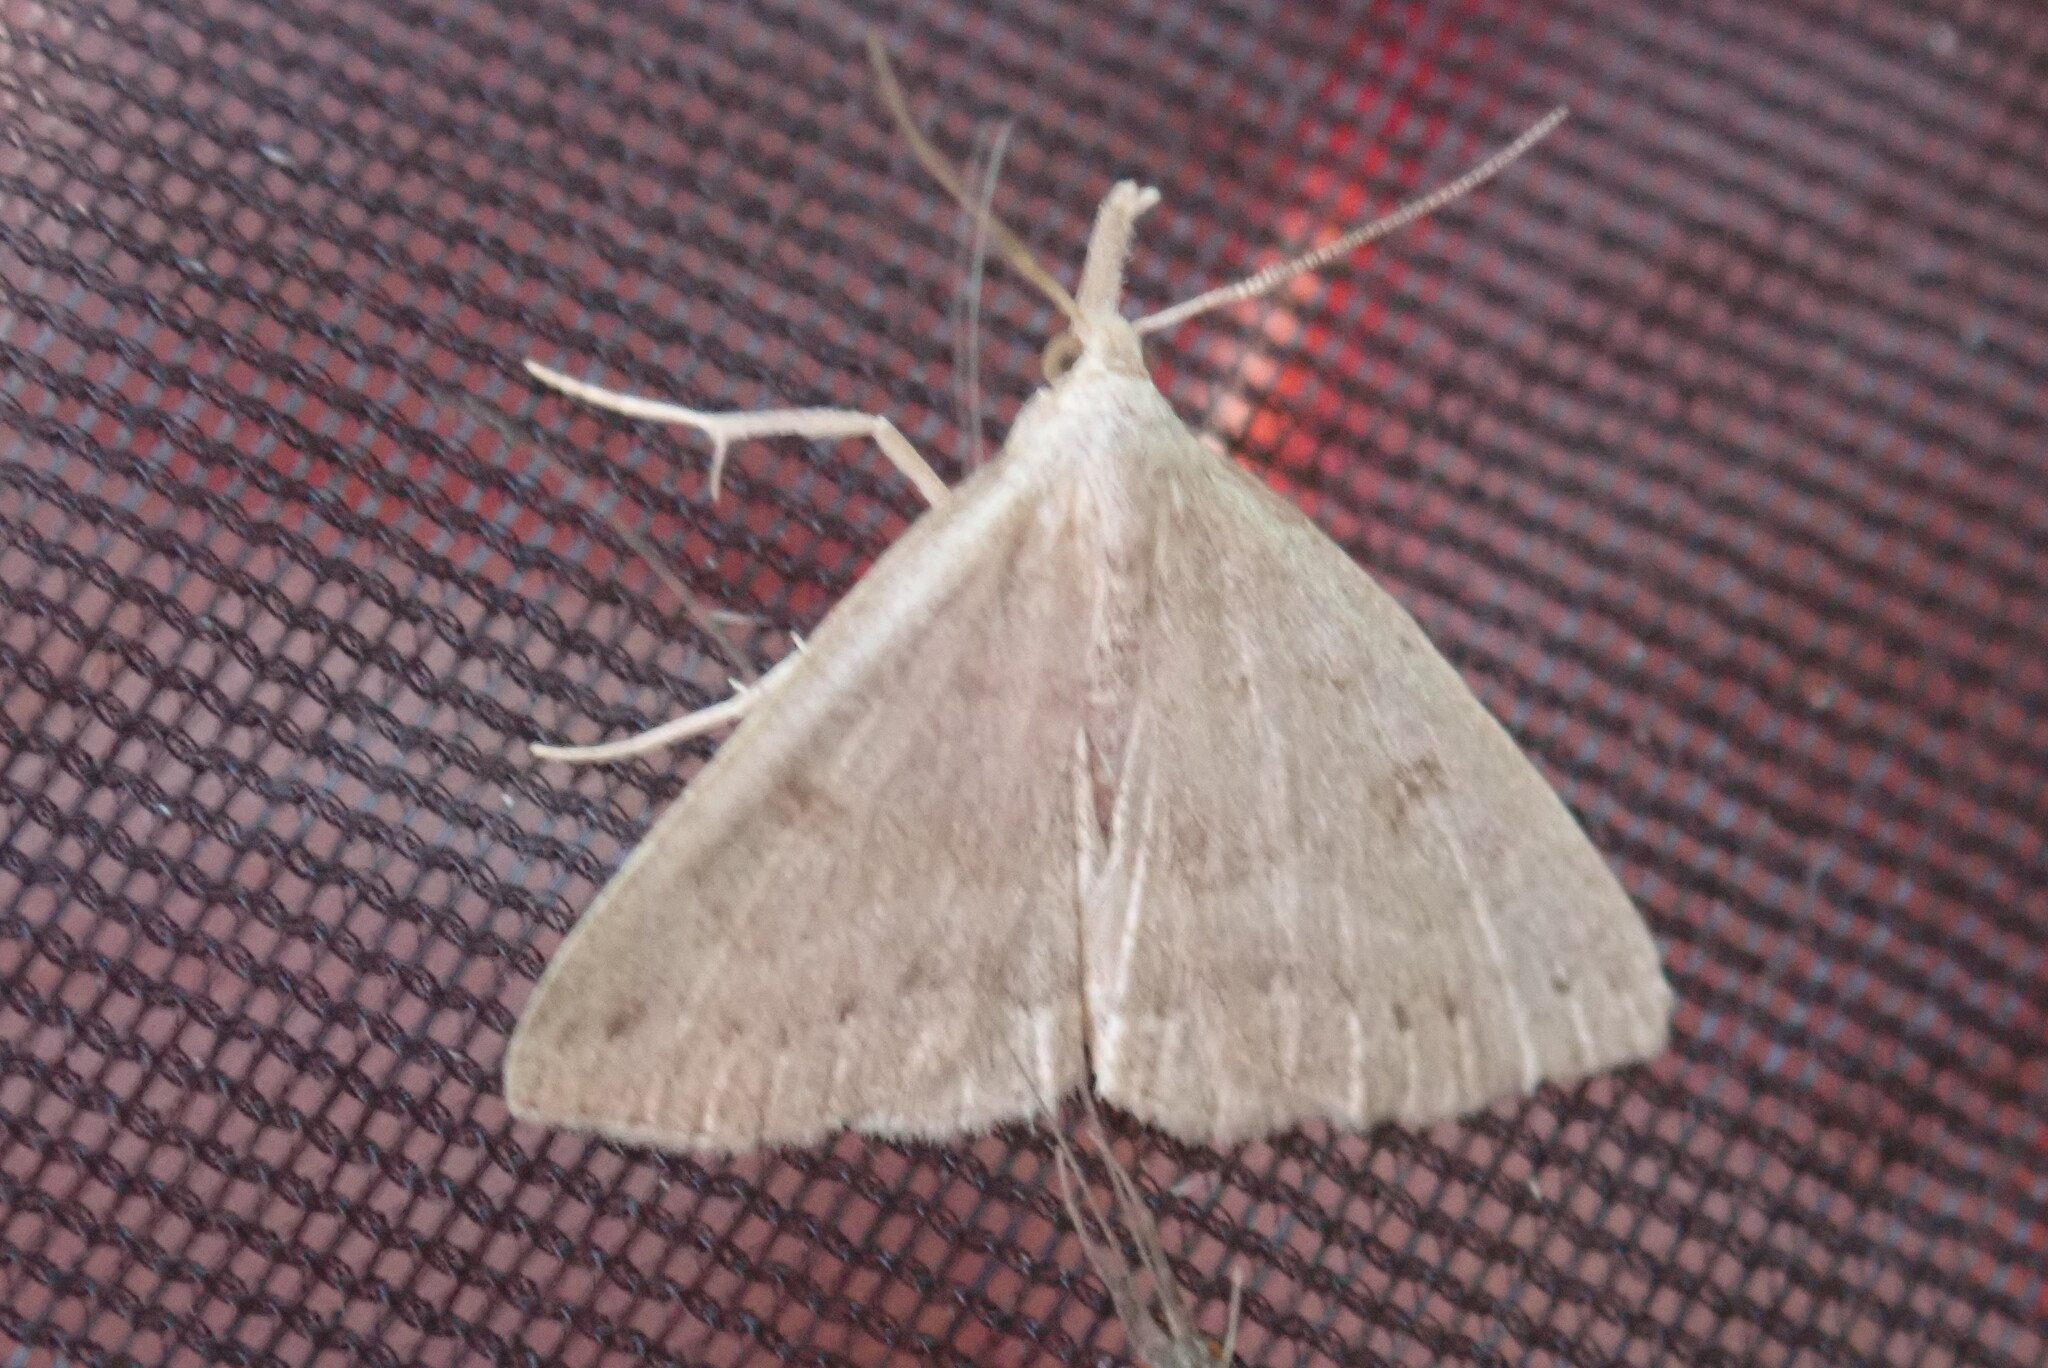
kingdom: Animalia
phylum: Arthropoda
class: Insecta
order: Lepidoptera
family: Erebidae
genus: Macrochilo
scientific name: Macrochilo morbidalis
